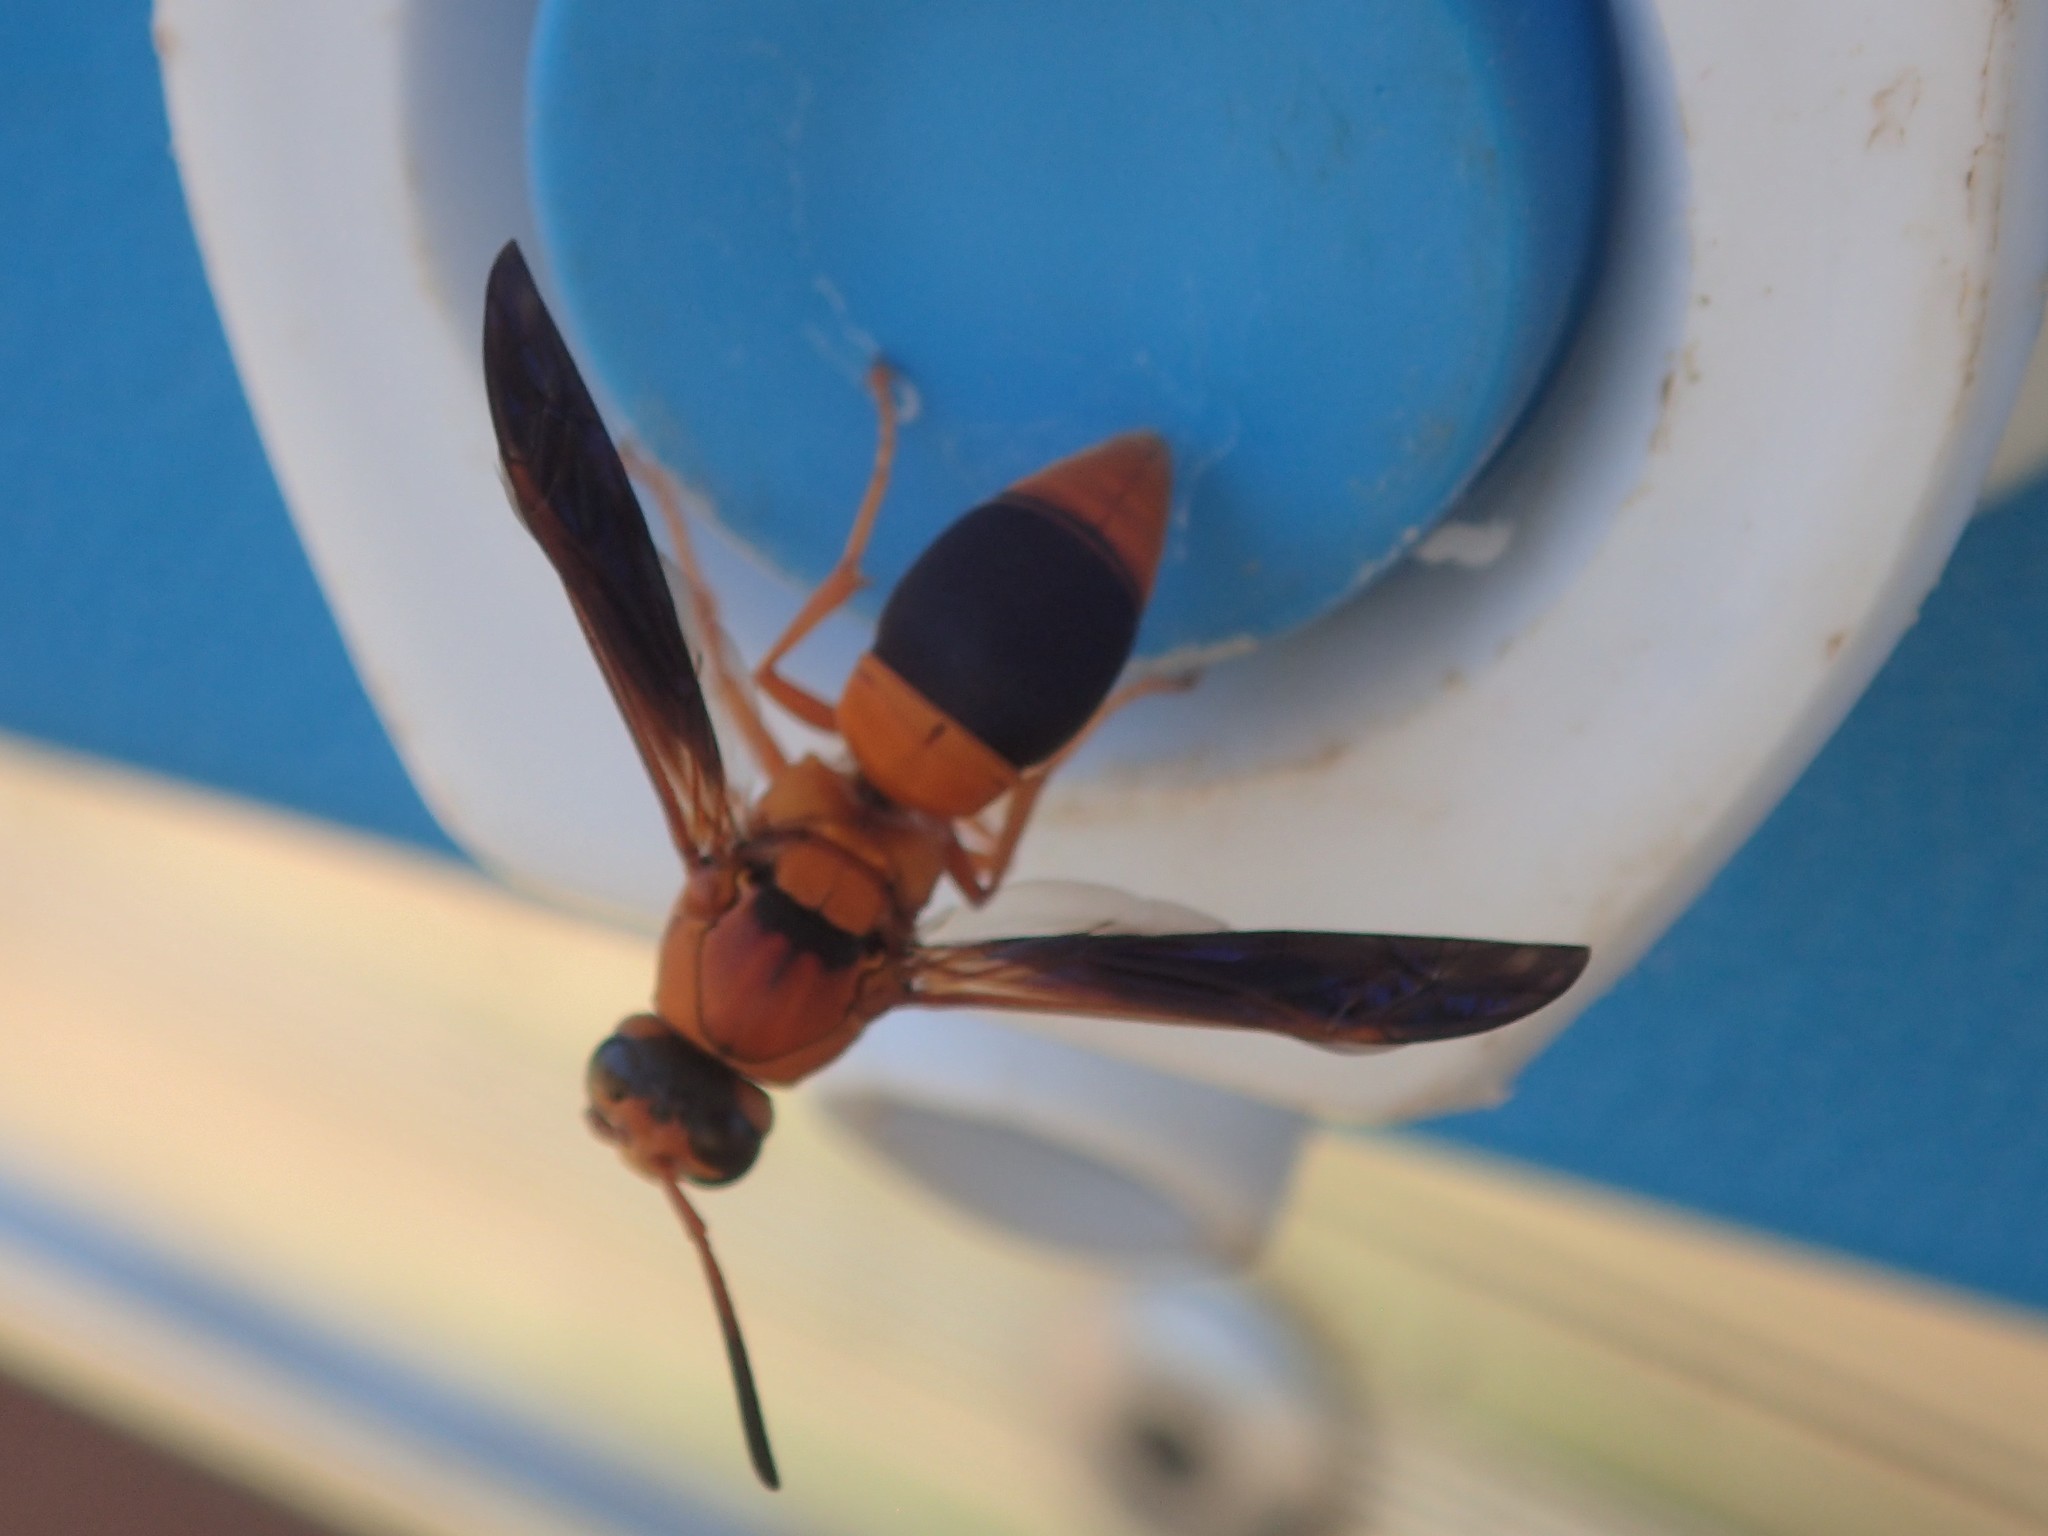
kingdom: Animalia
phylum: Arthropoda
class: Insecta
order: Hymenoptera
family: Eumenidae
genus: Pseudabispa
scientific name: Pseudabispa bicolor
